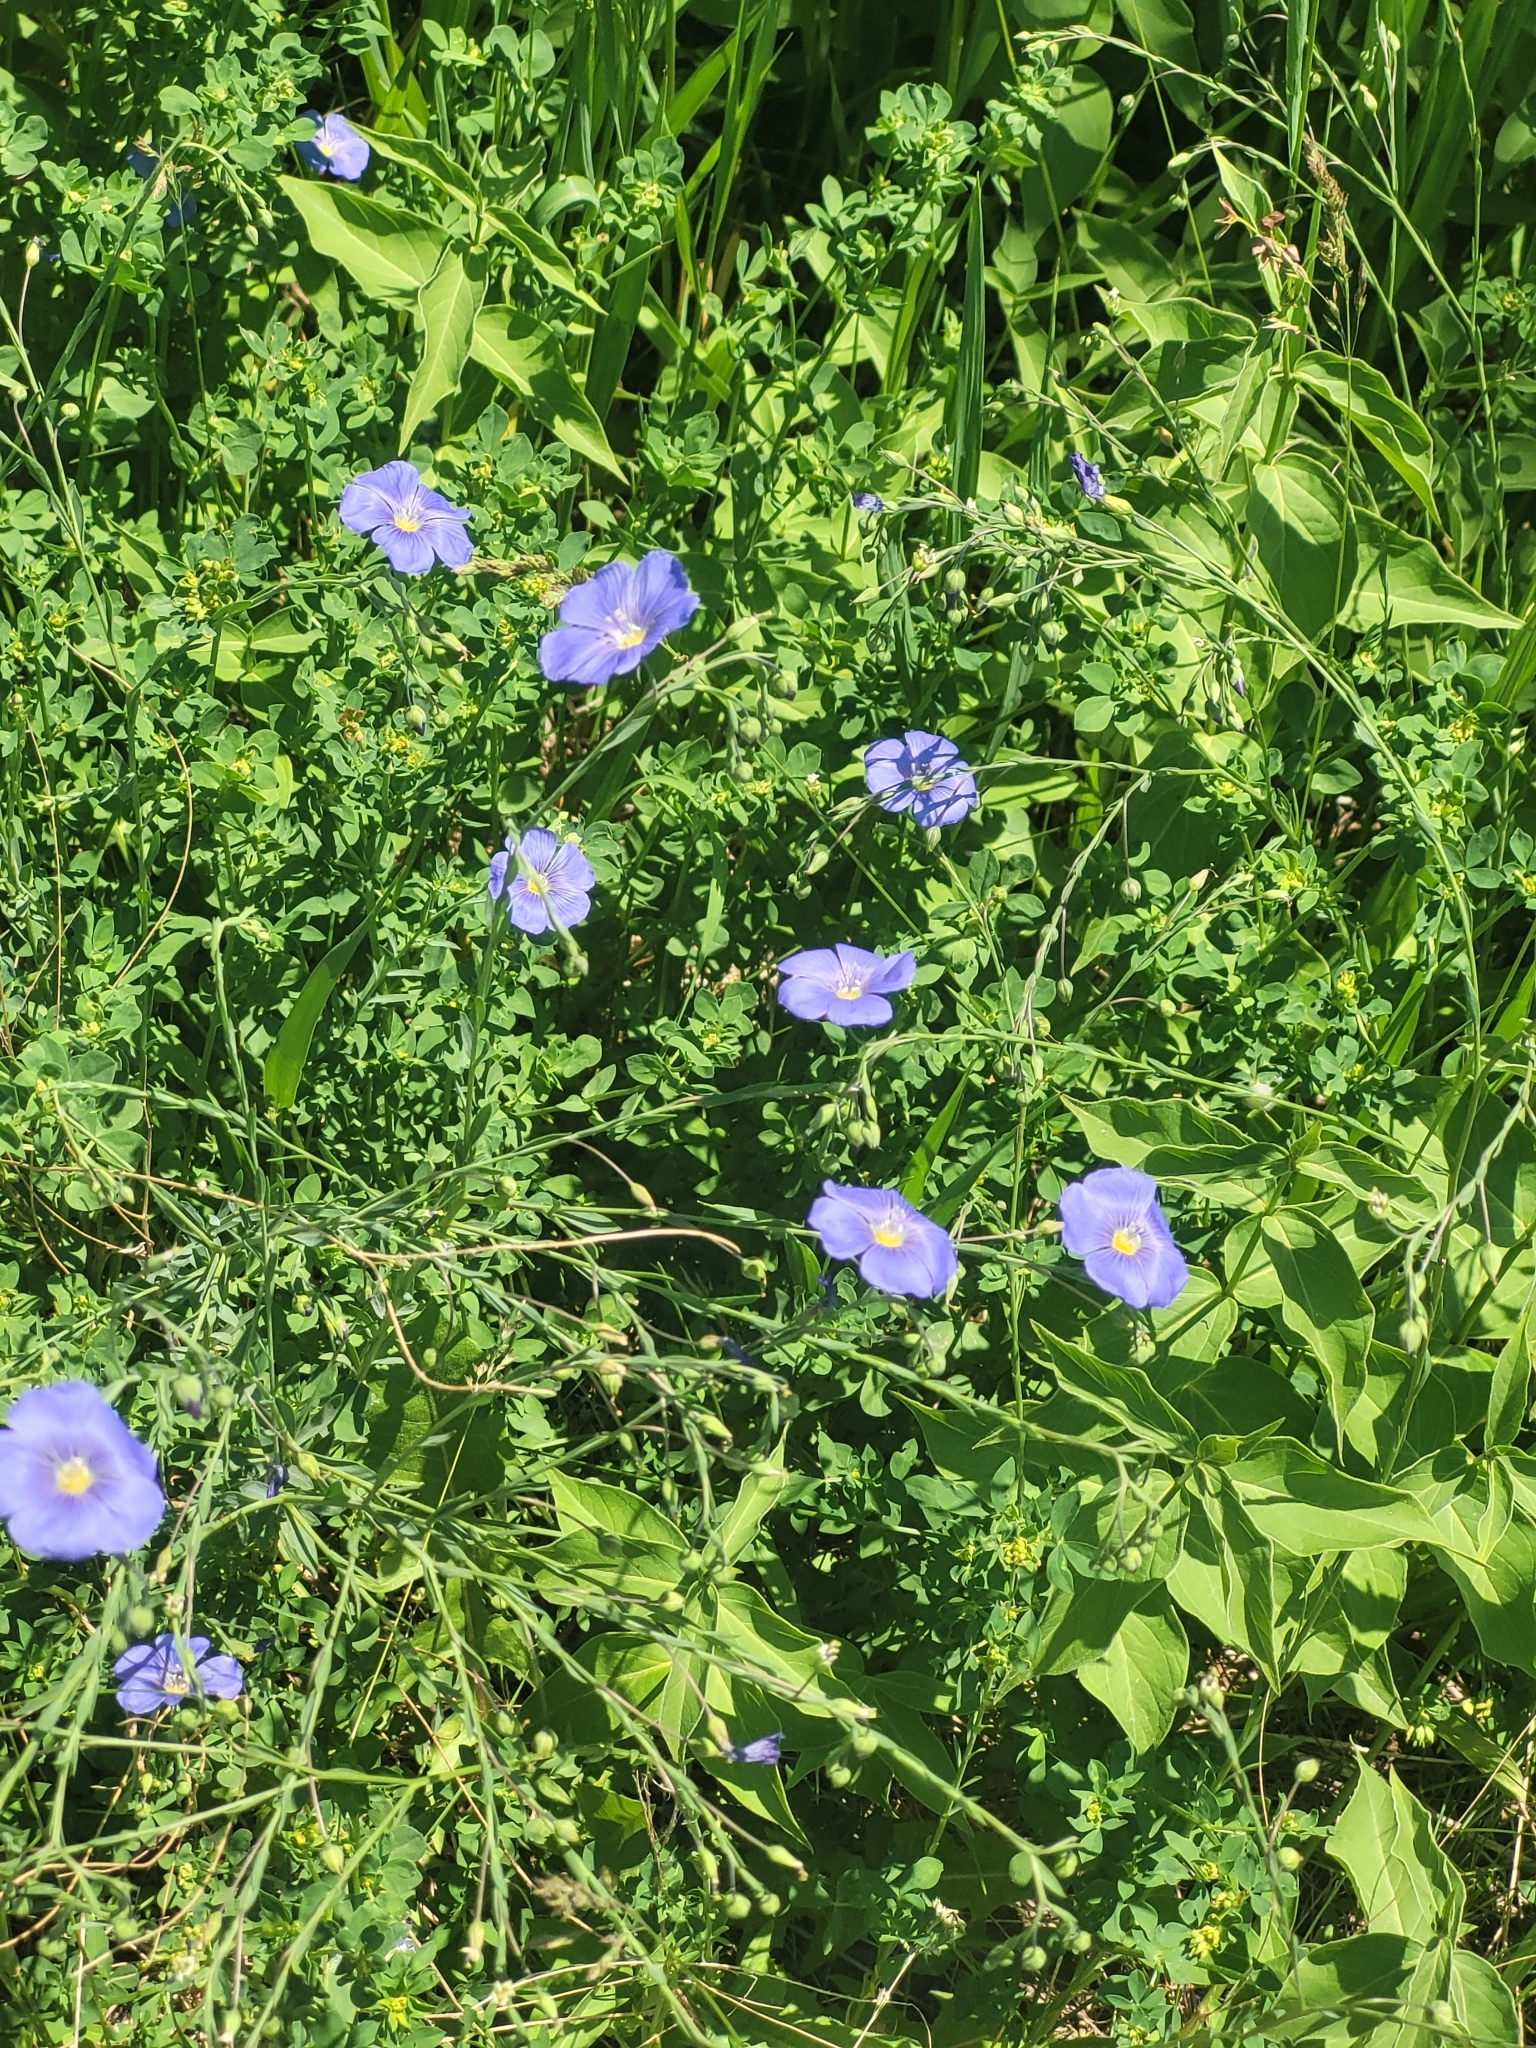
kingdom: Plantae
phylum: Tracheophyta
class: Magnoliopsida
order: Malpighiales
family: Linaceae
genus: Linum
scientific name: Linum perenne
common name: Blue flax
